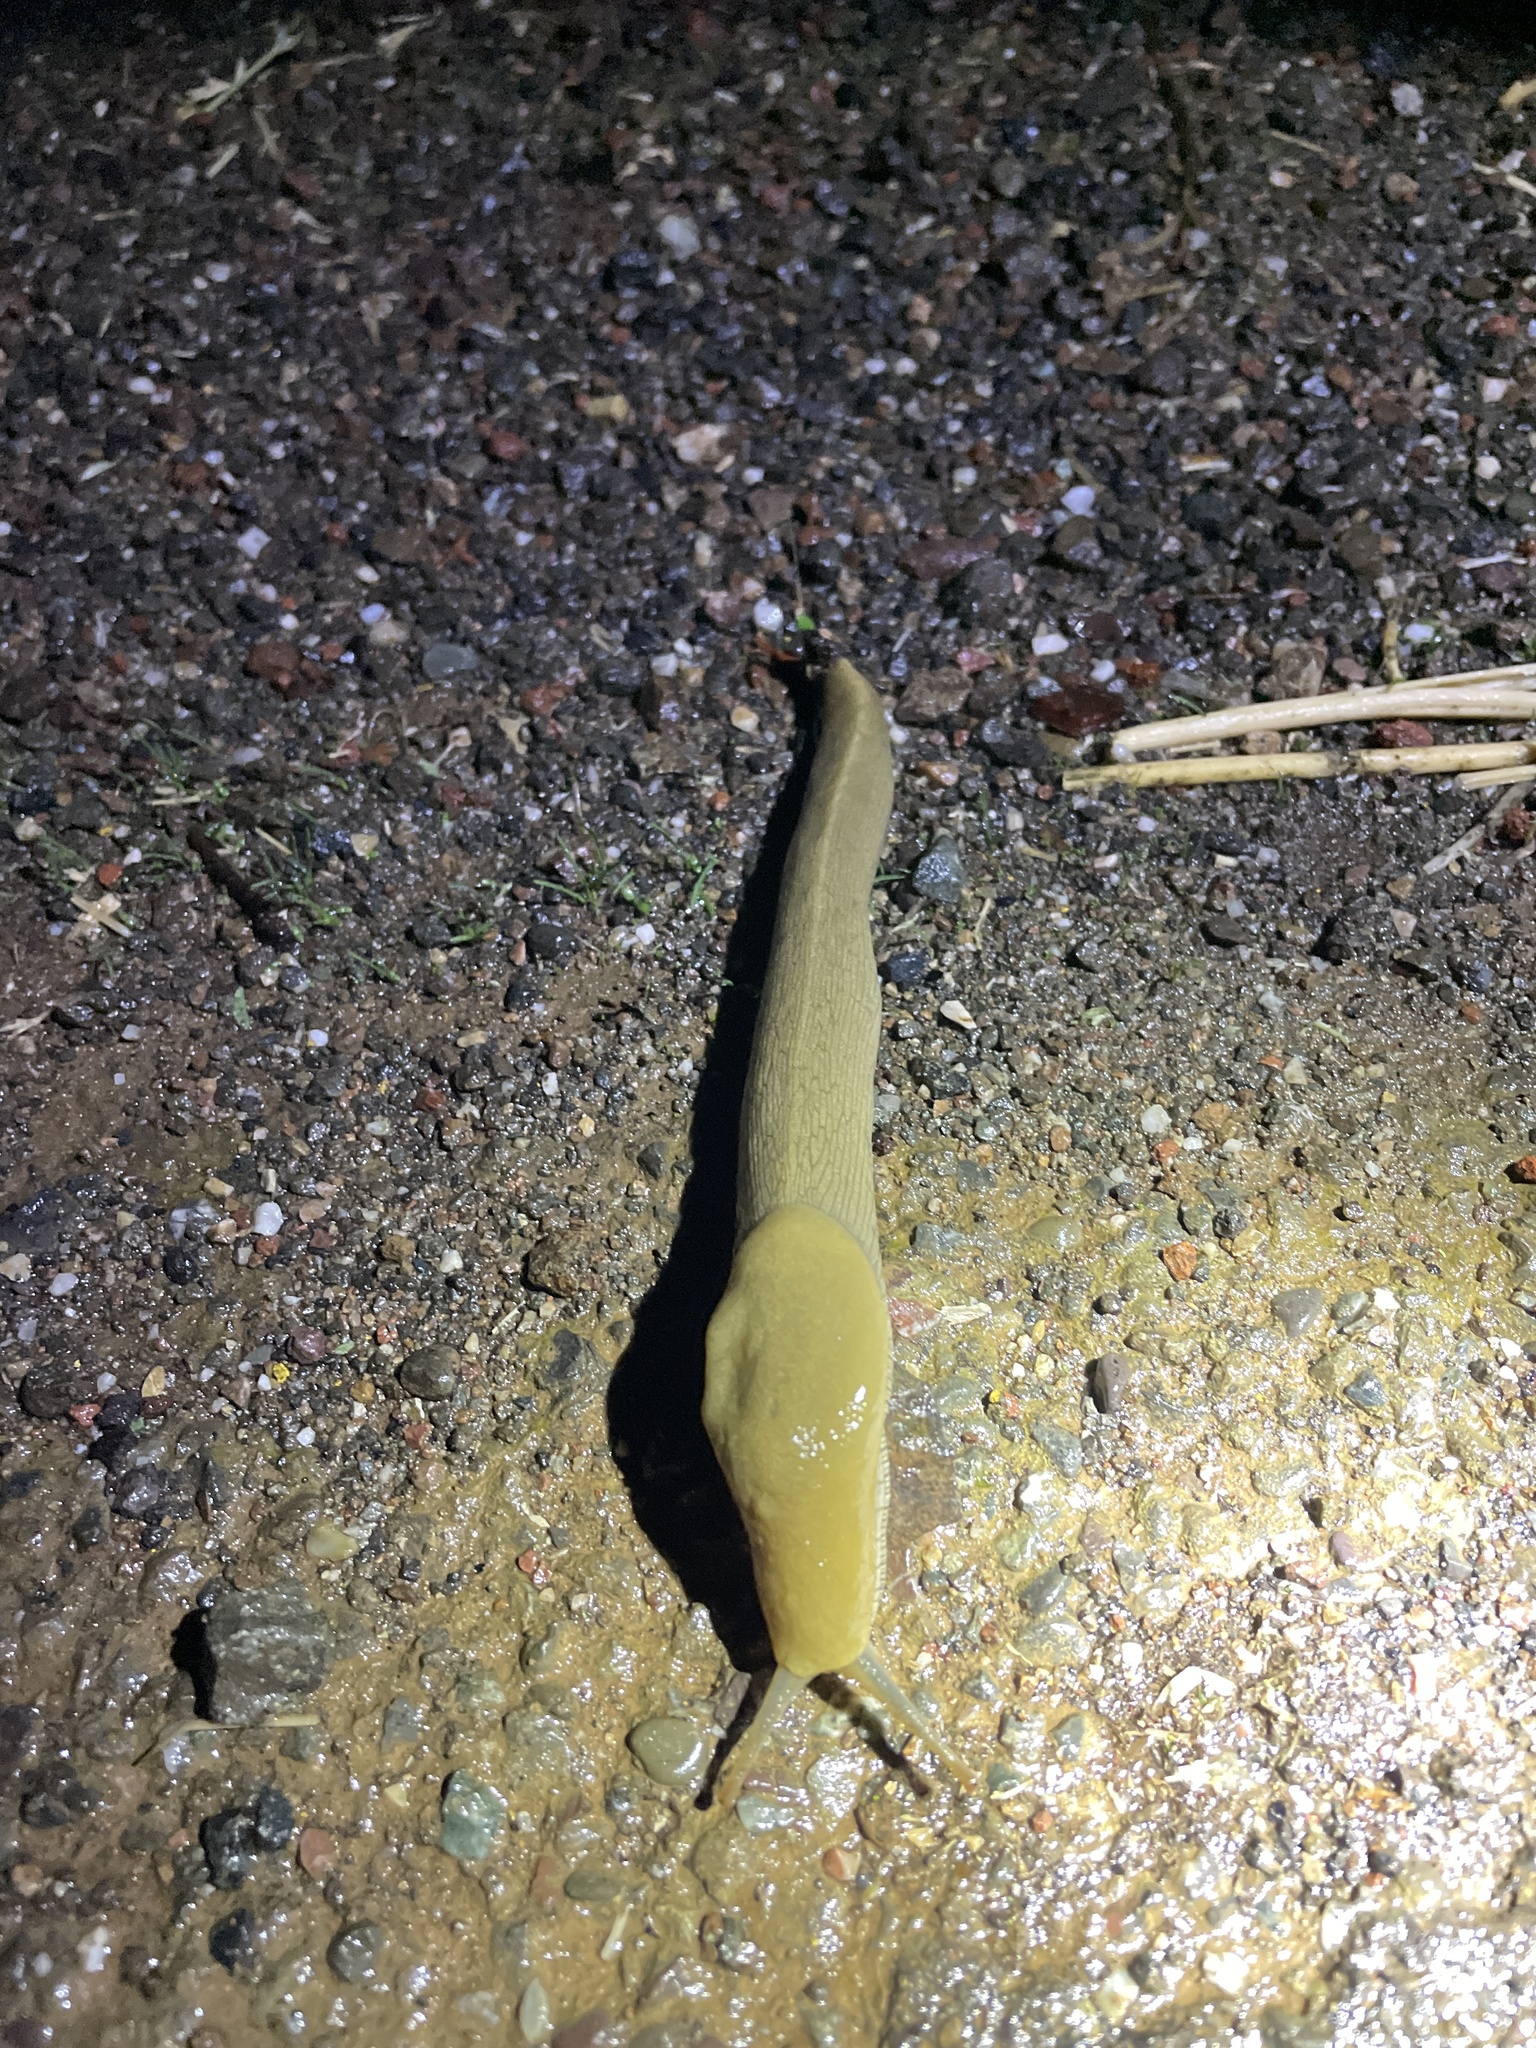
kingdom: Animalia
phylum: Mollusca
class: Gastropoda
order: Stylommatophora
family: Ariolimacidae
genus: Ariolimax
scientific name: Ariolimax buttoni
